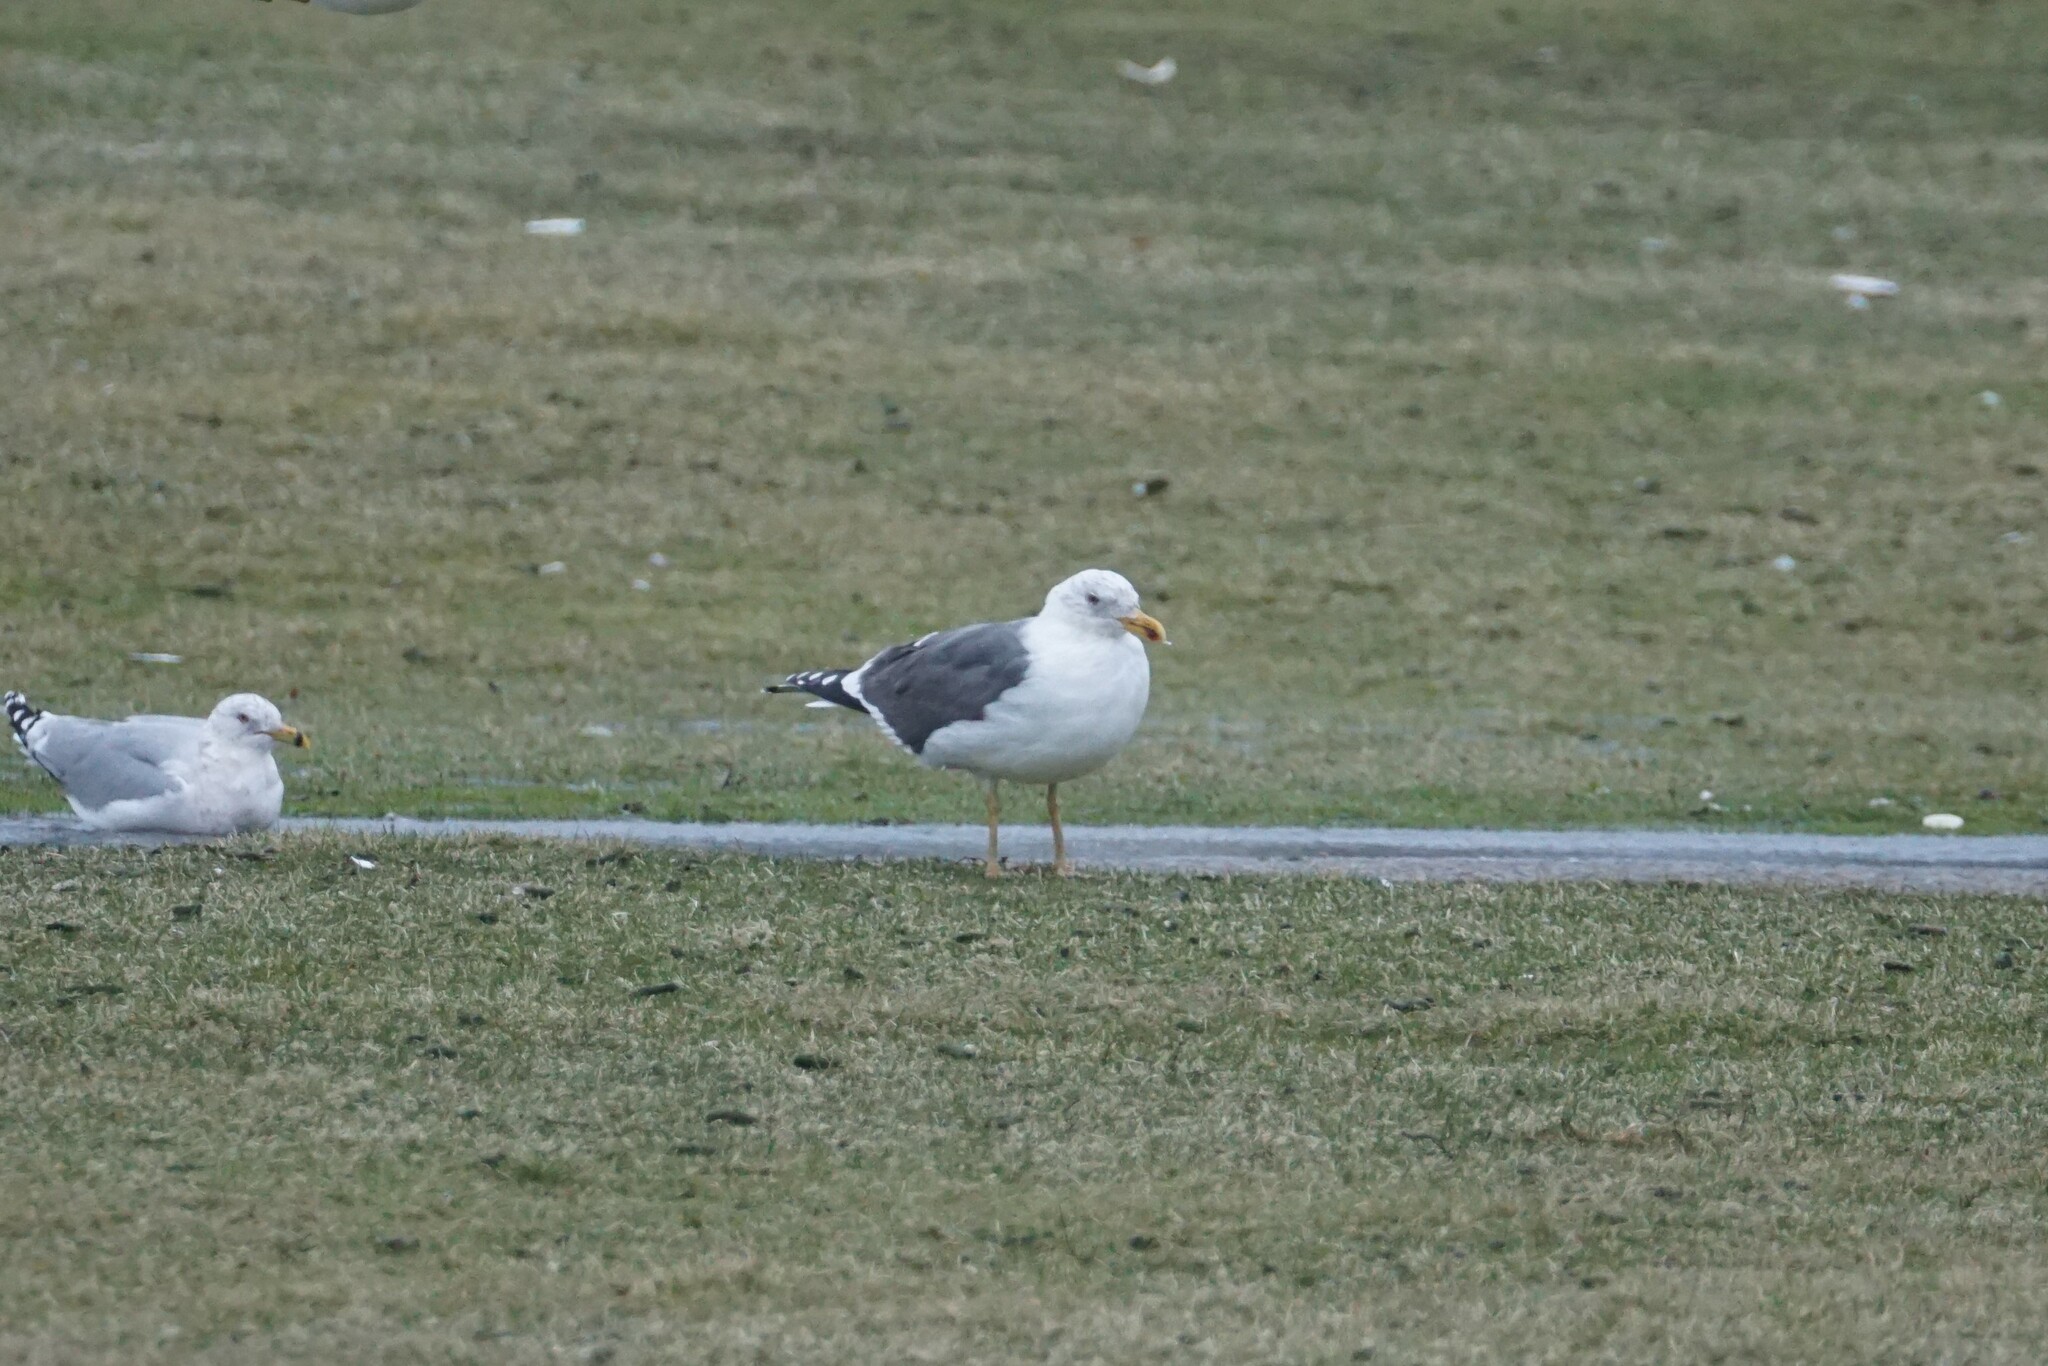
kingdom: Animalia
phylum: Chordata
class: Aves
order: Charadriiformes
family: Laridae
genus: Larus
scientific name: Larus fuscus
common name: Lesser black-backed gull
